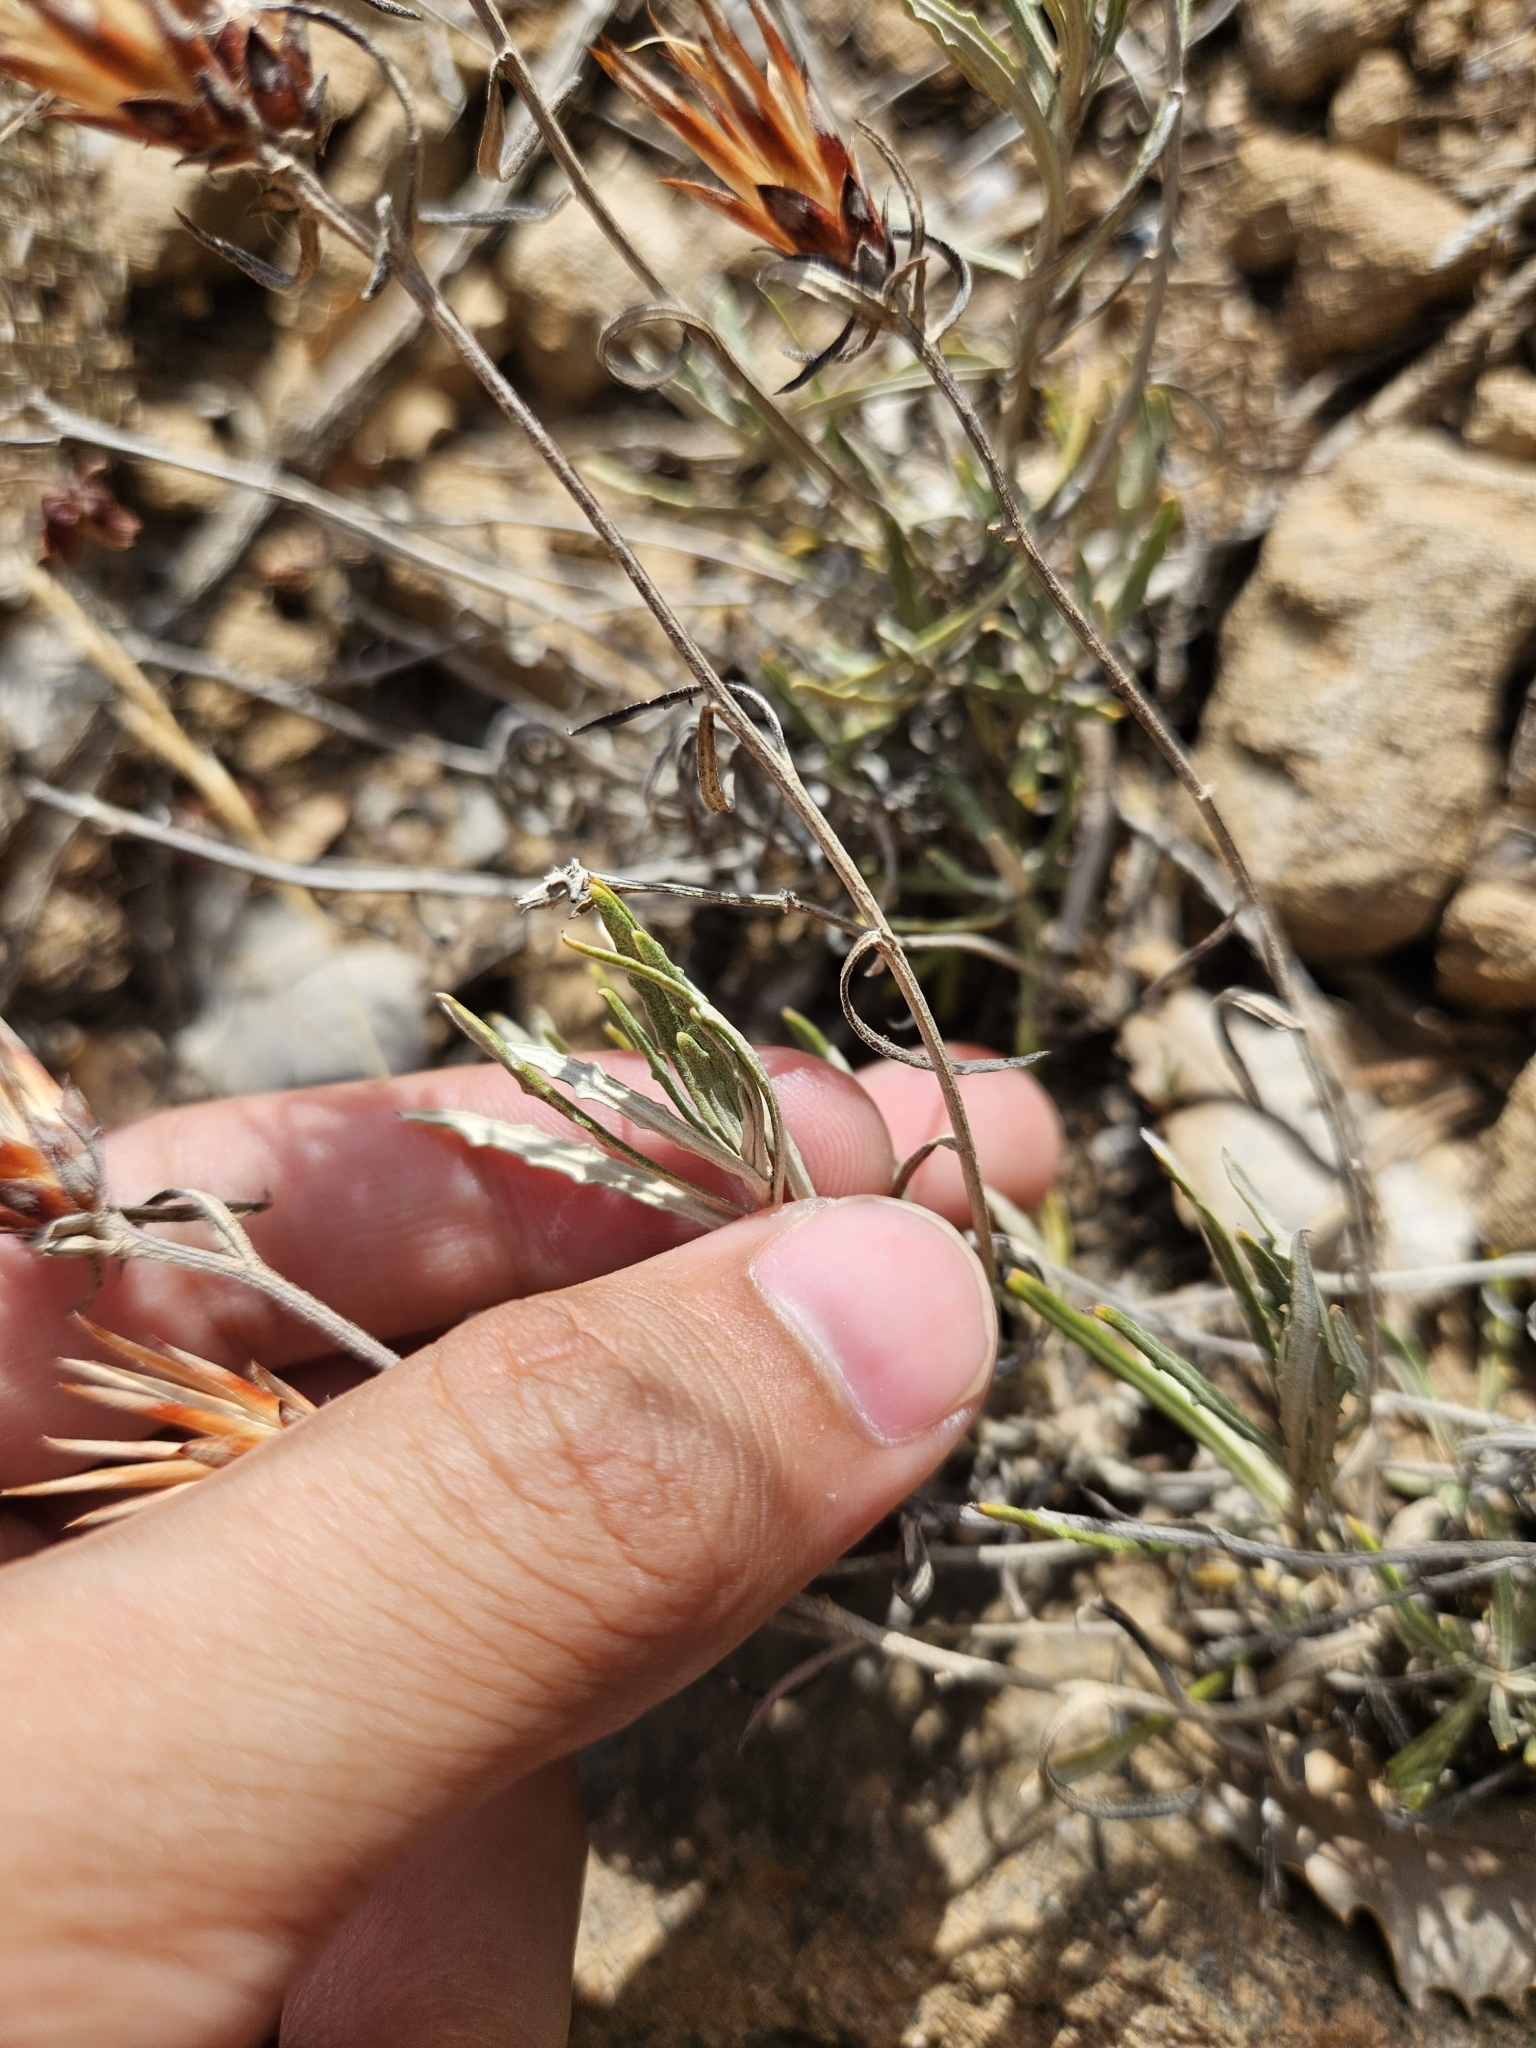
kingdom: Plantae
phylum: Tracheophyta
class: Magnoliopsida
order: Asterales
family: Asteraceae
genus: Staehelina
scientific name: Staehelina dubia
